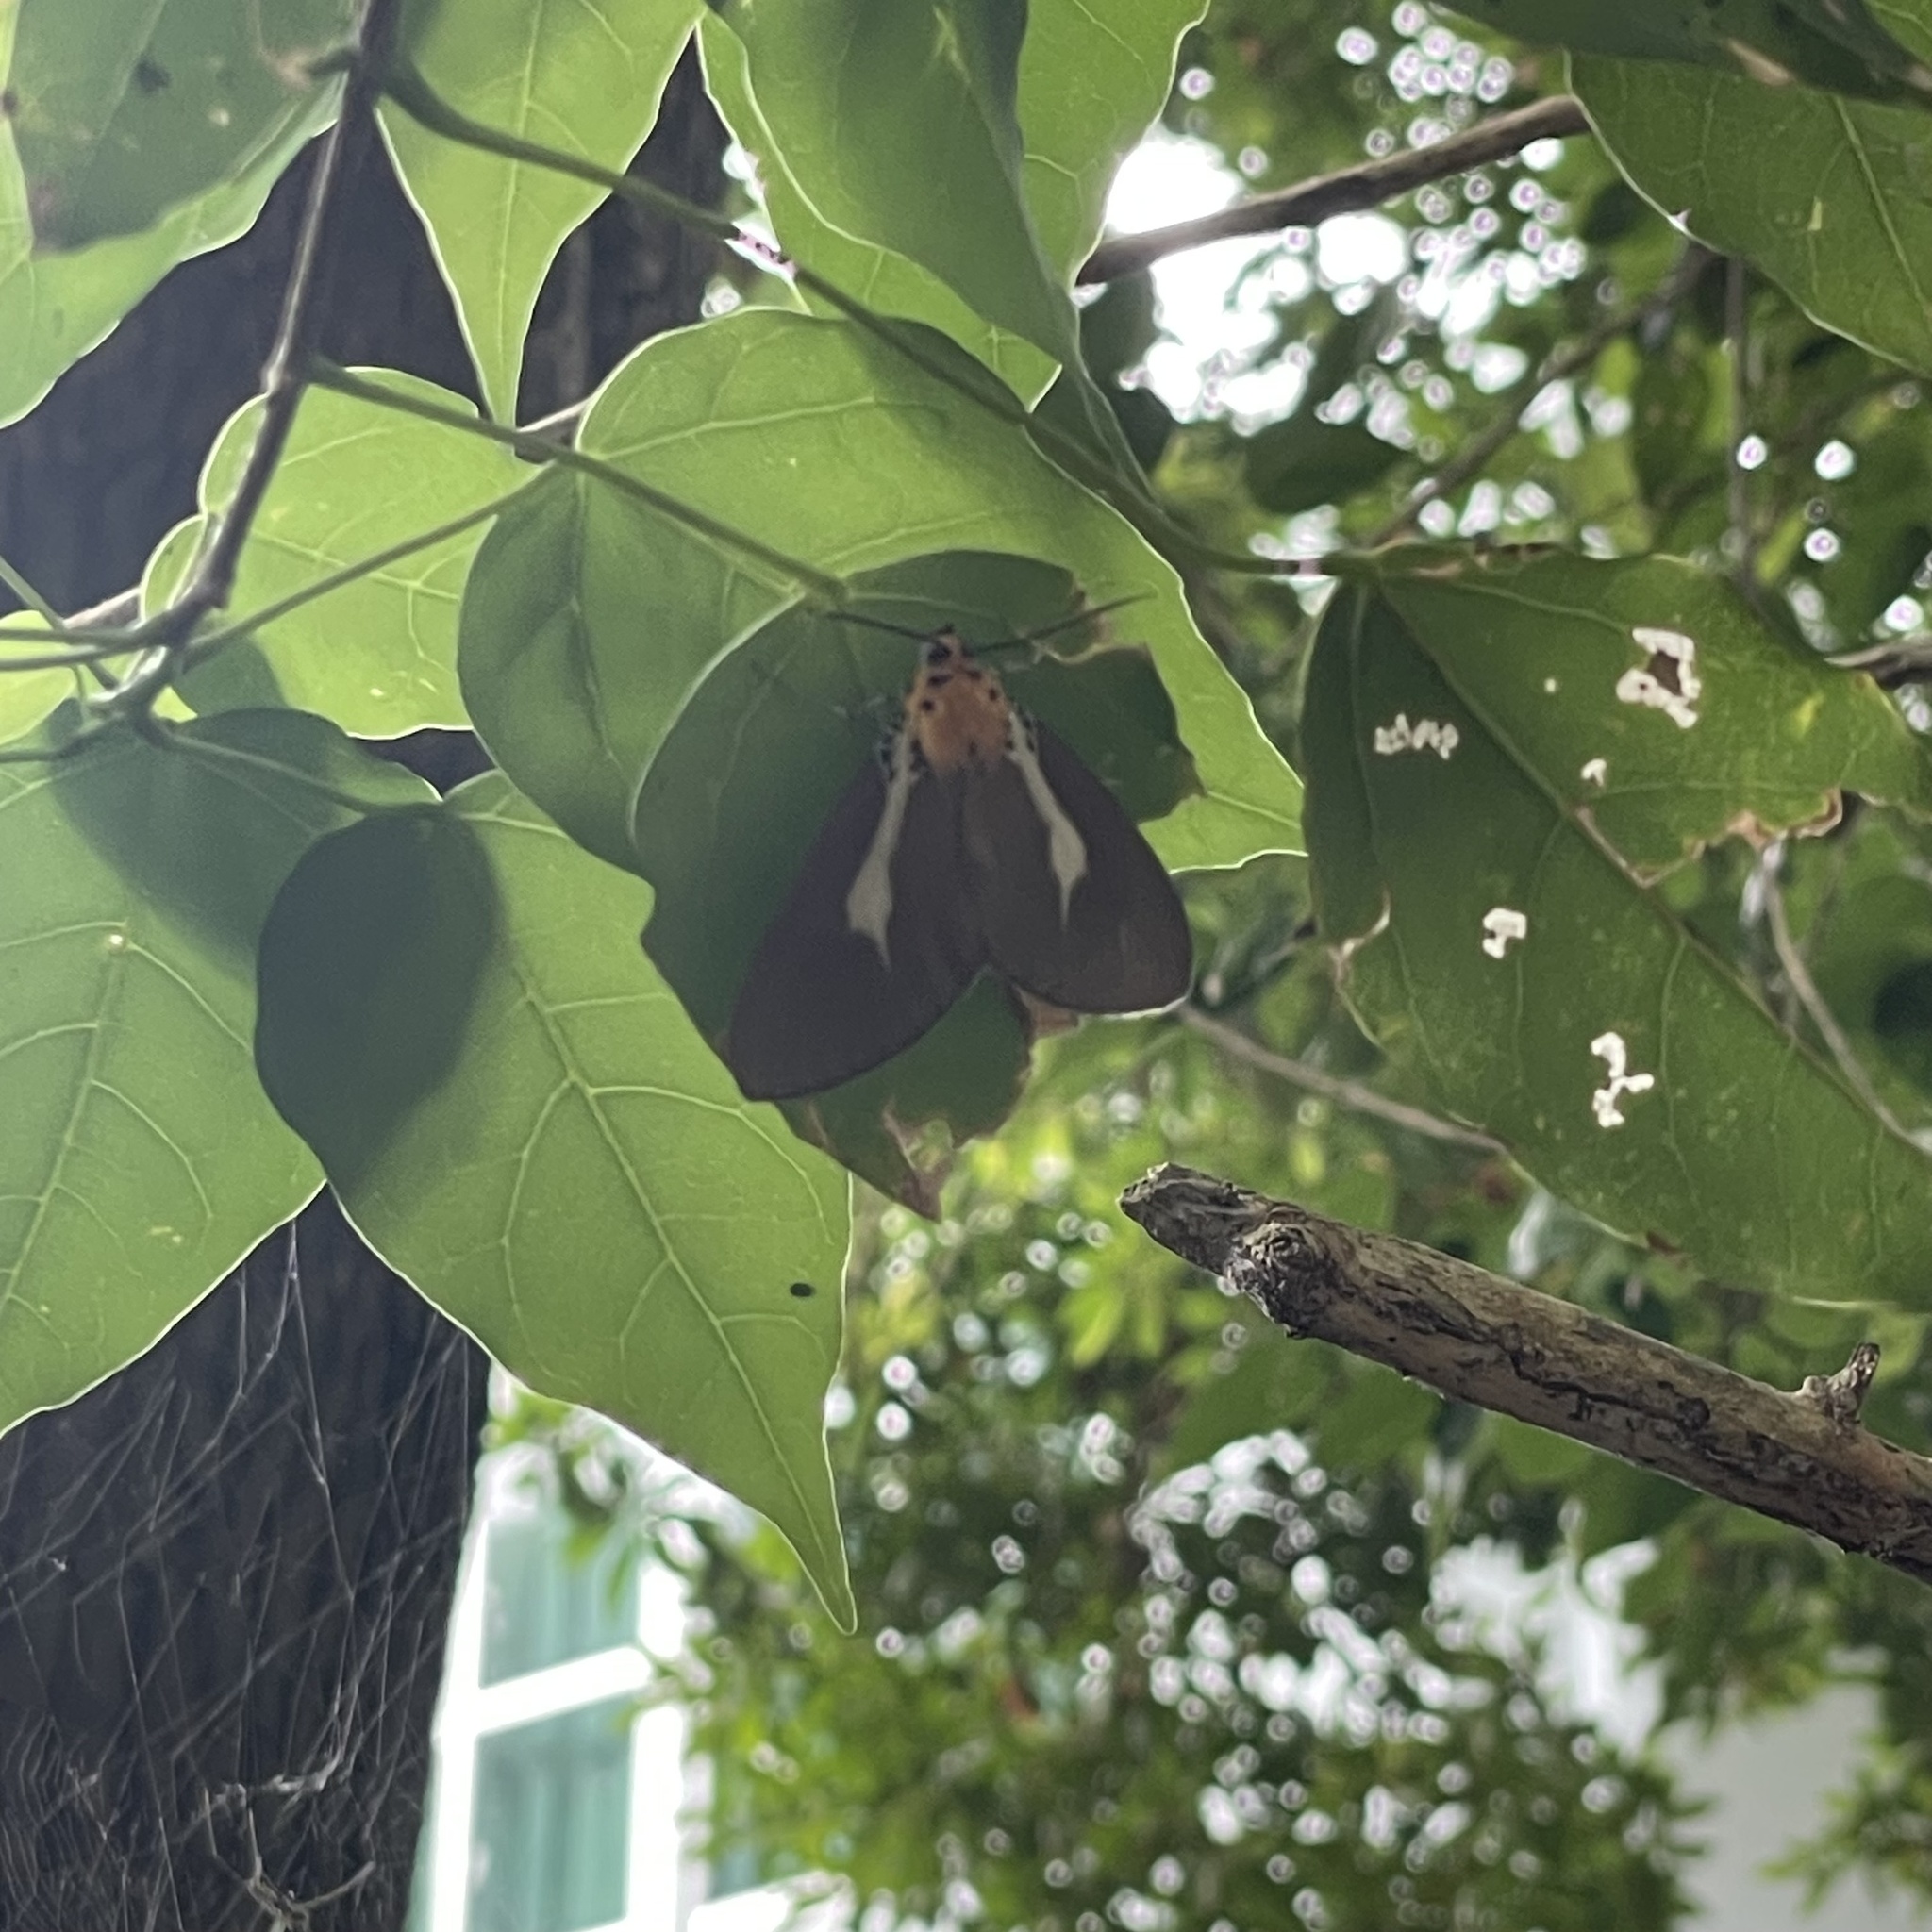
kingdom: Animalia
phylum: Arthropoda
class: Insecta
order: Lepidoptera
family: Erebidae
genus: Asota
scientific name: Asota heliconia
